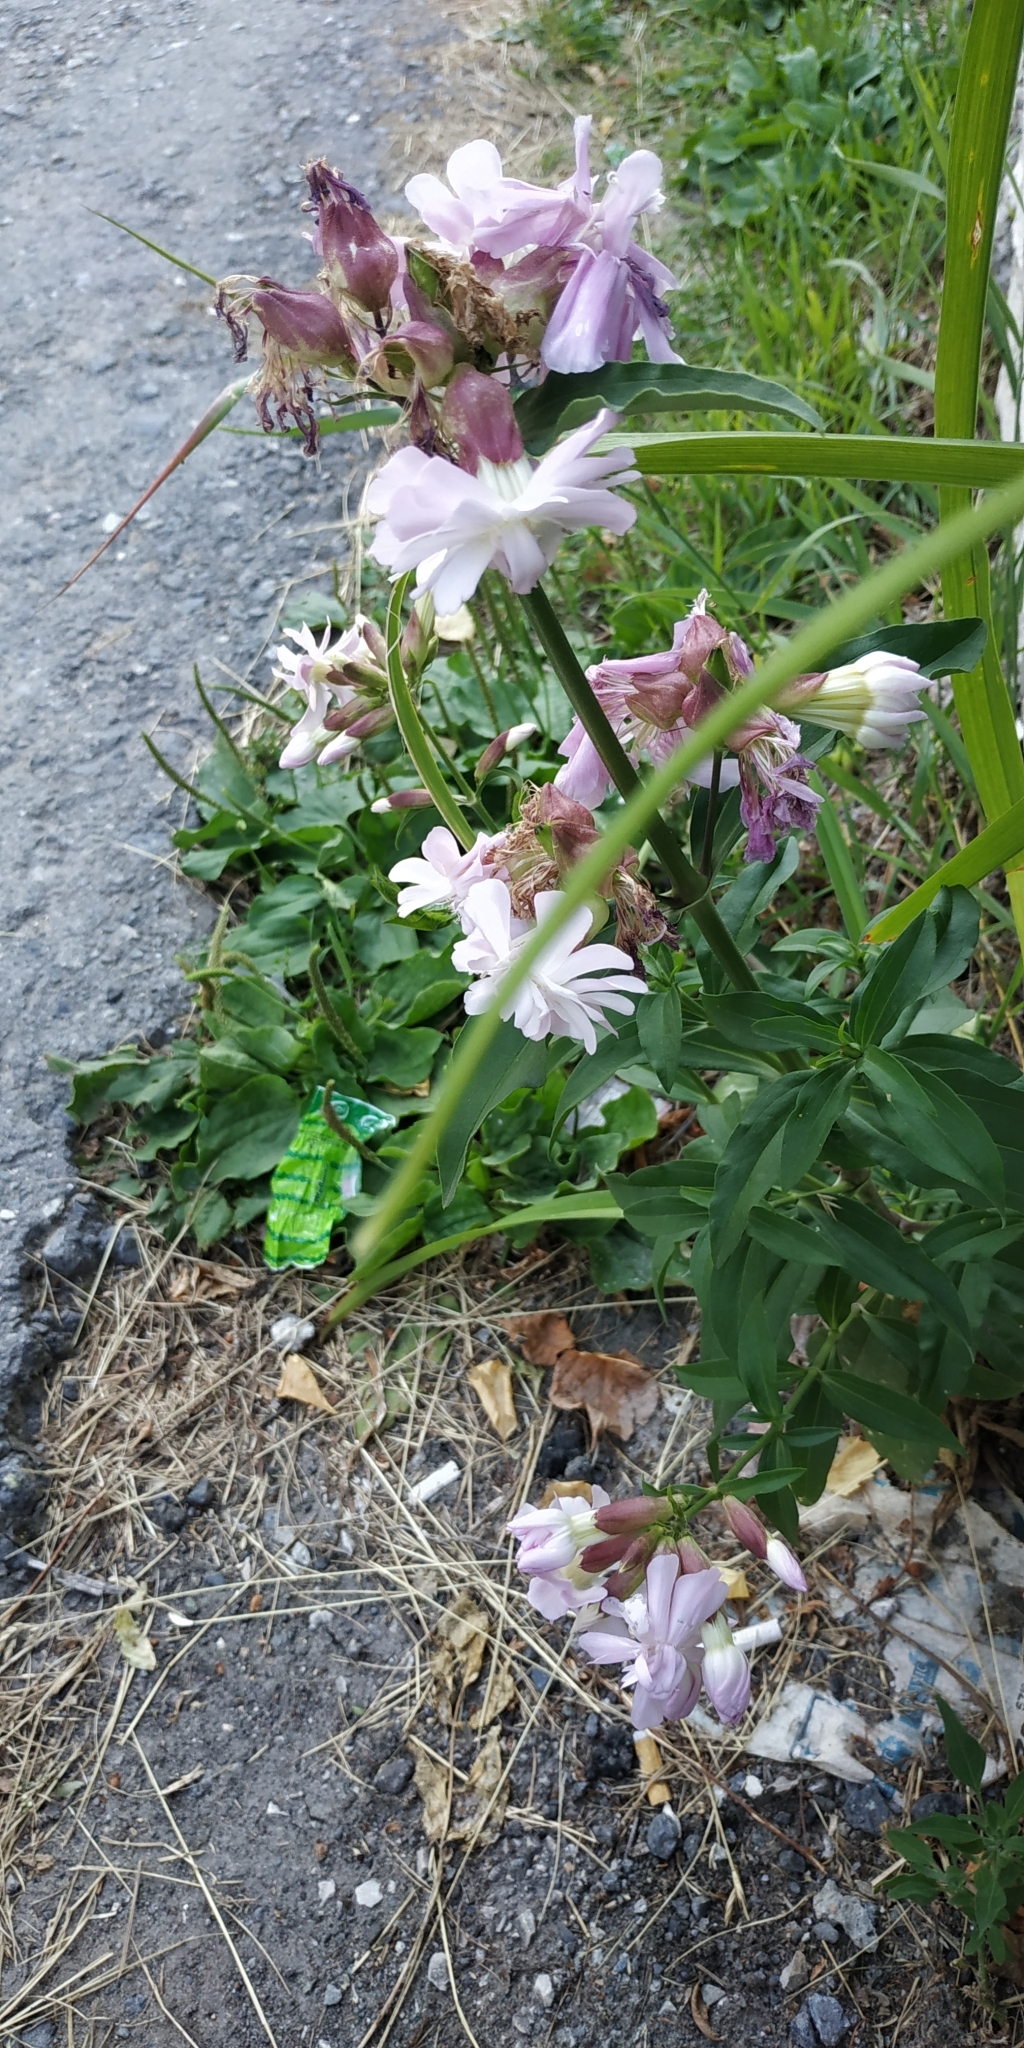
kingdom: Plantae
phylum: Tracheophyta
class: Magnoliopsida
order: Caryophyllales
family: Caryophyllaceae
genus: Saponaria
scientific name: Saponaria officinalis
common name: Soapwort
